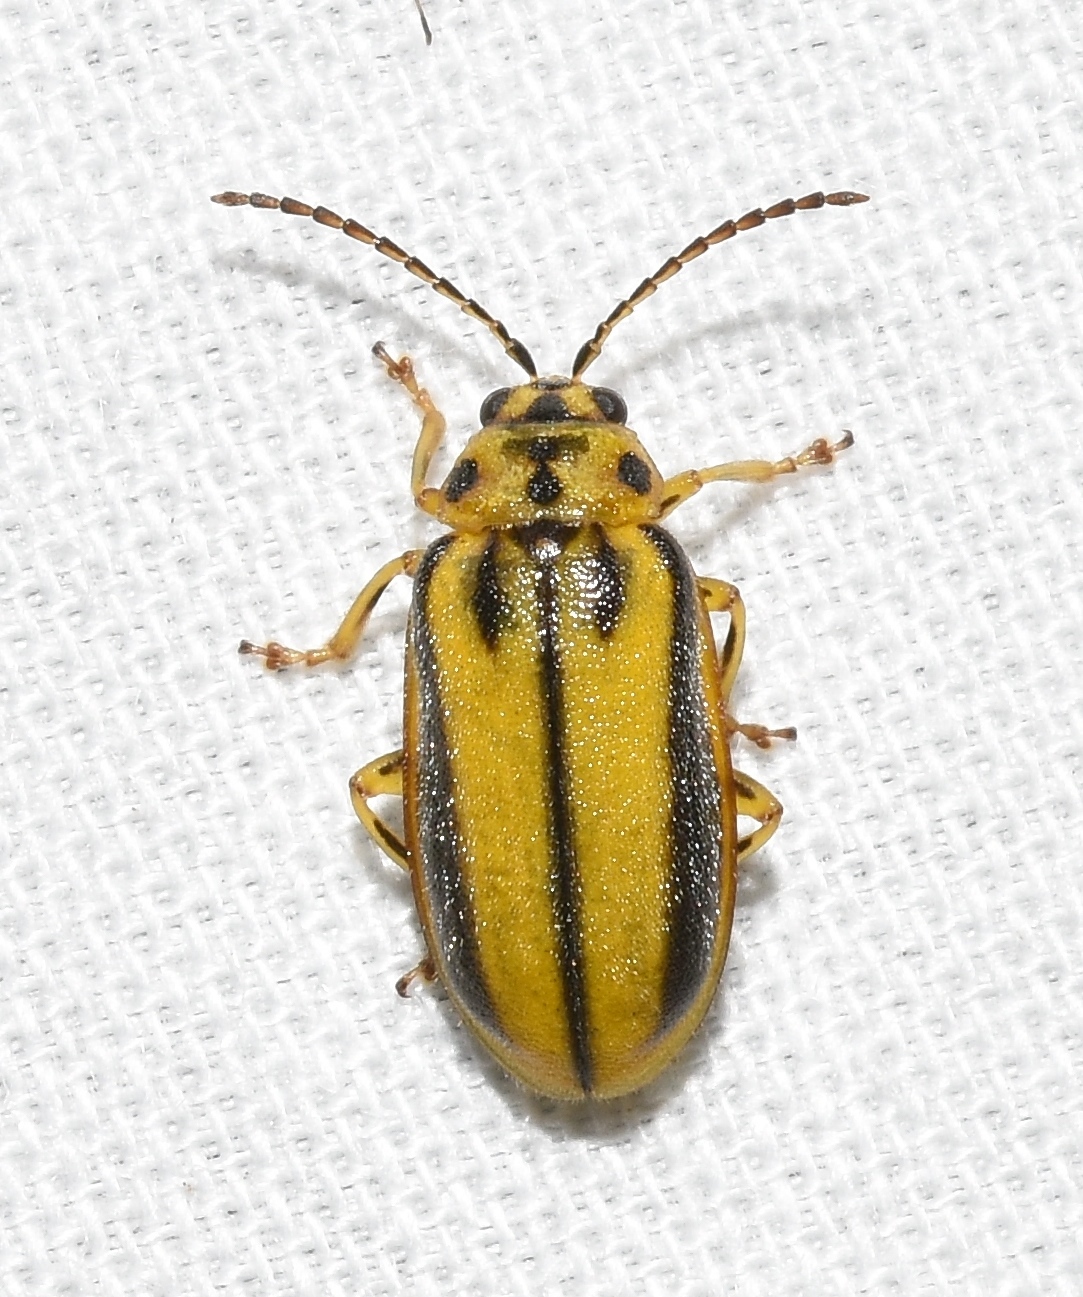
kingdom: Animalia
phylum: Arthropoda
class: Insecta
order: Coleoptera
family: Chrysomelidae
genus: Xanthogaleruca
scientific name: Xanthogaleruca luteola
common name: Elm leaf beetle
